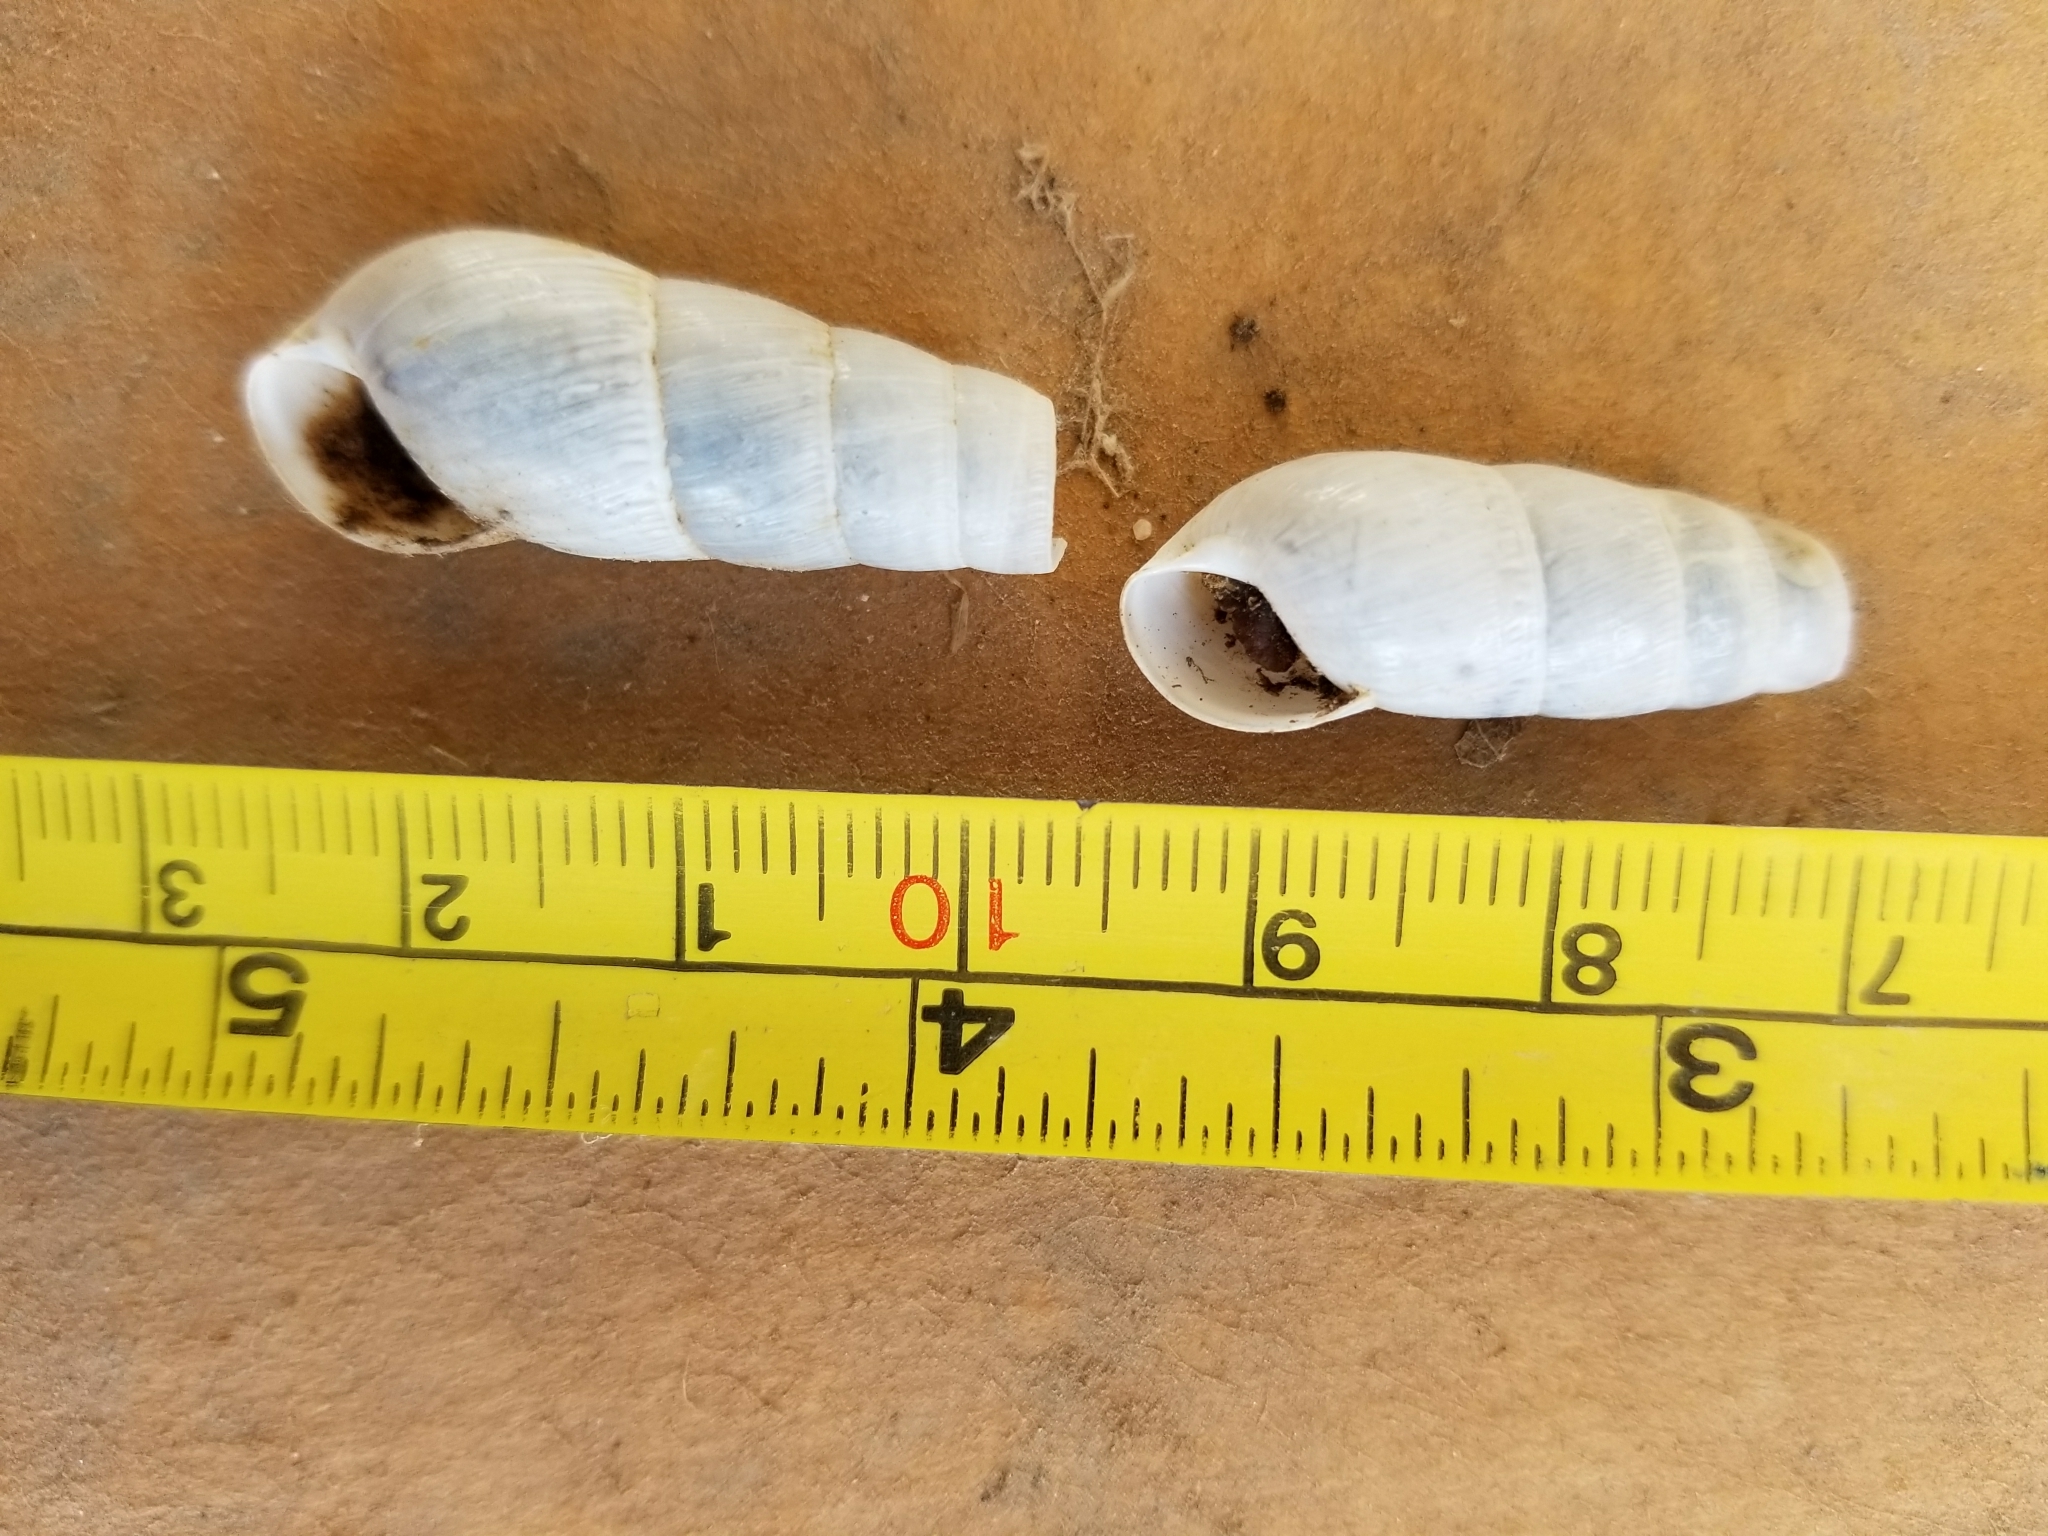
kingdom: Animalia
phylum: Mollusca
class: Gastropoda
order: Stylommatophora
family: Achatinidae
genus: Rumina
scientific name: Rumina decollata
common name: Decollate snail
